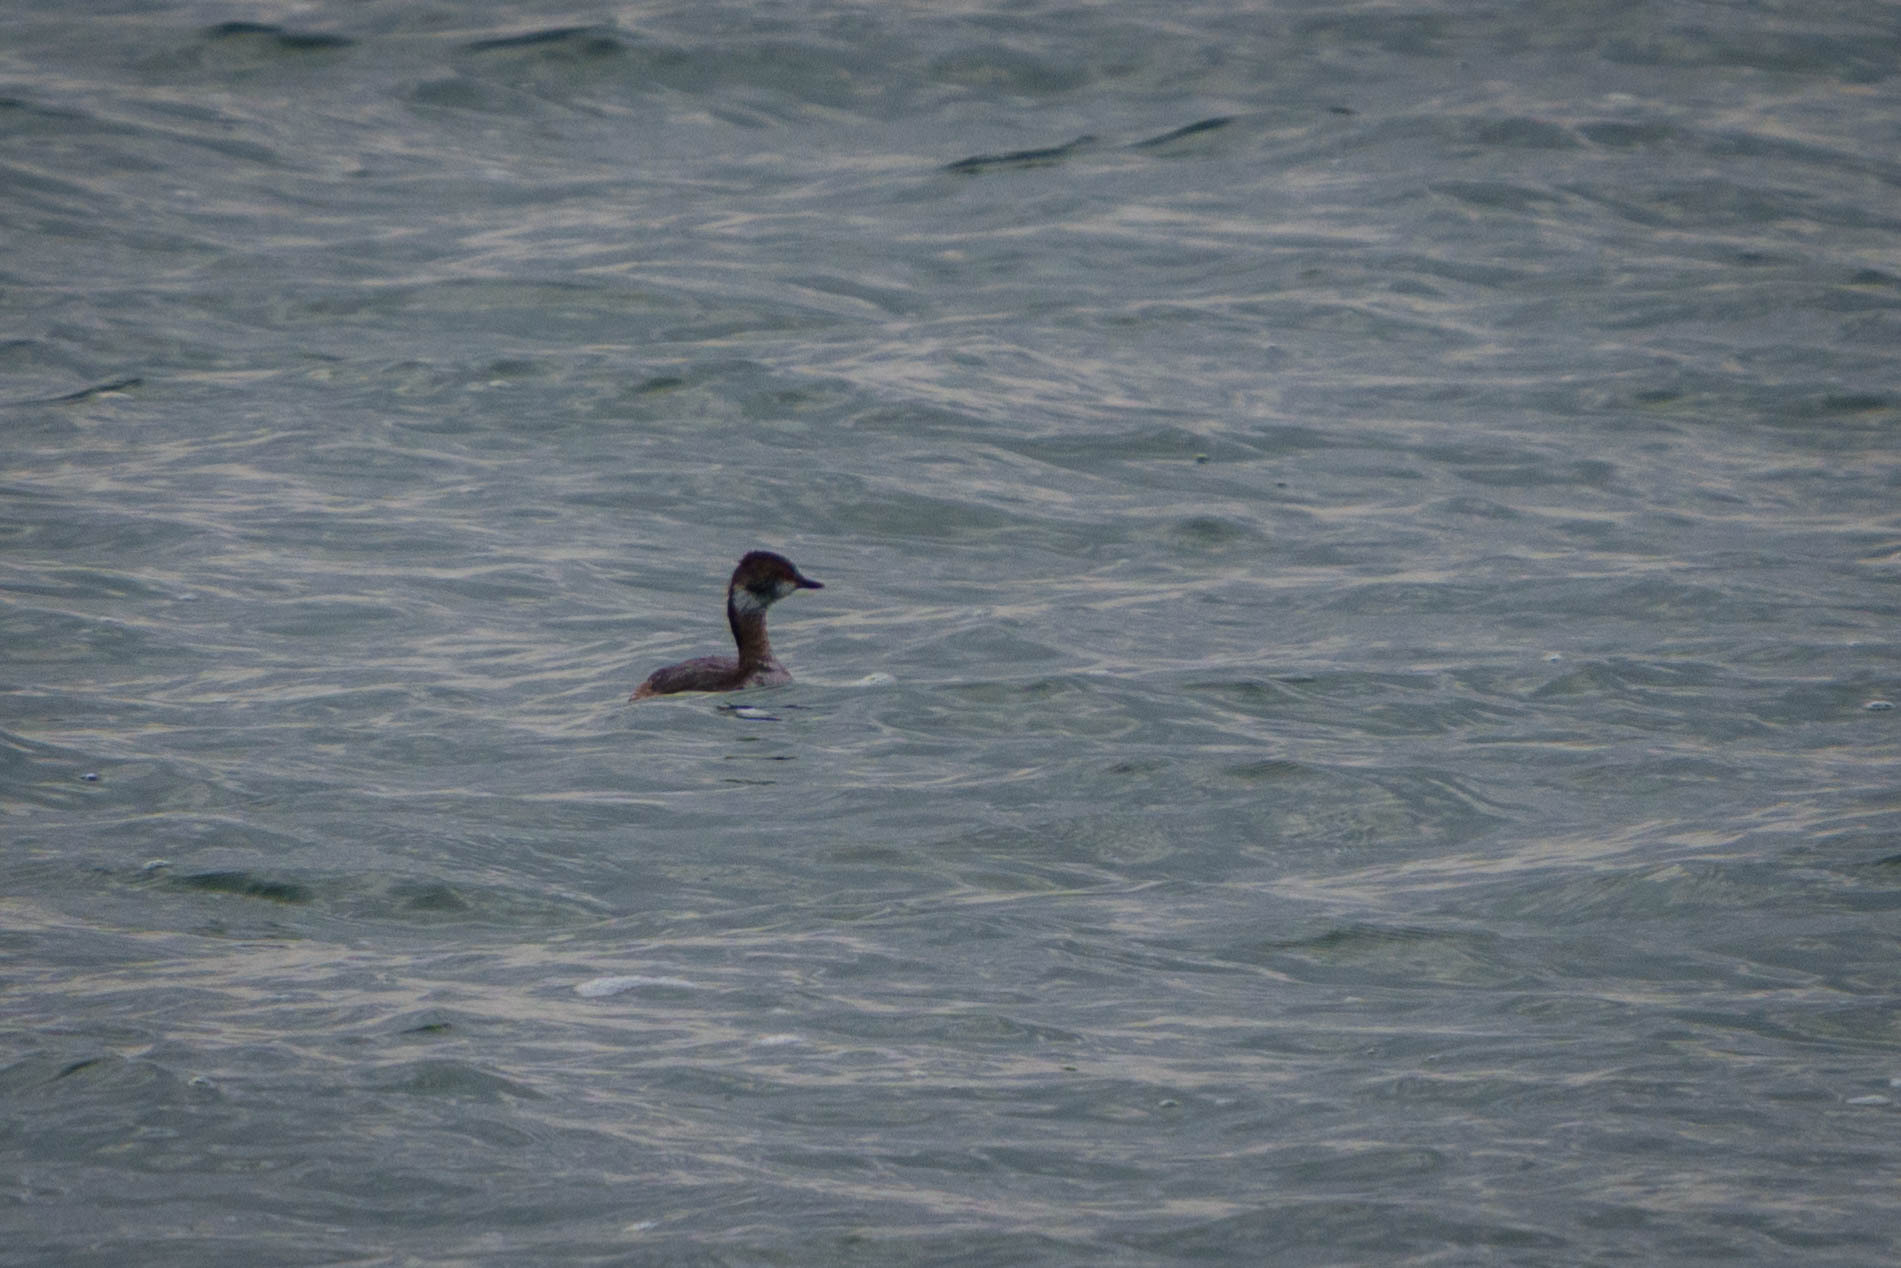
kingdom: Animalia
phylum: Chordata
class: Aves
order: Podicipediformes
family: Podicipedidae
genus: Podiceps
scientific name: Podiceps auritus
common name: Horned grebe
